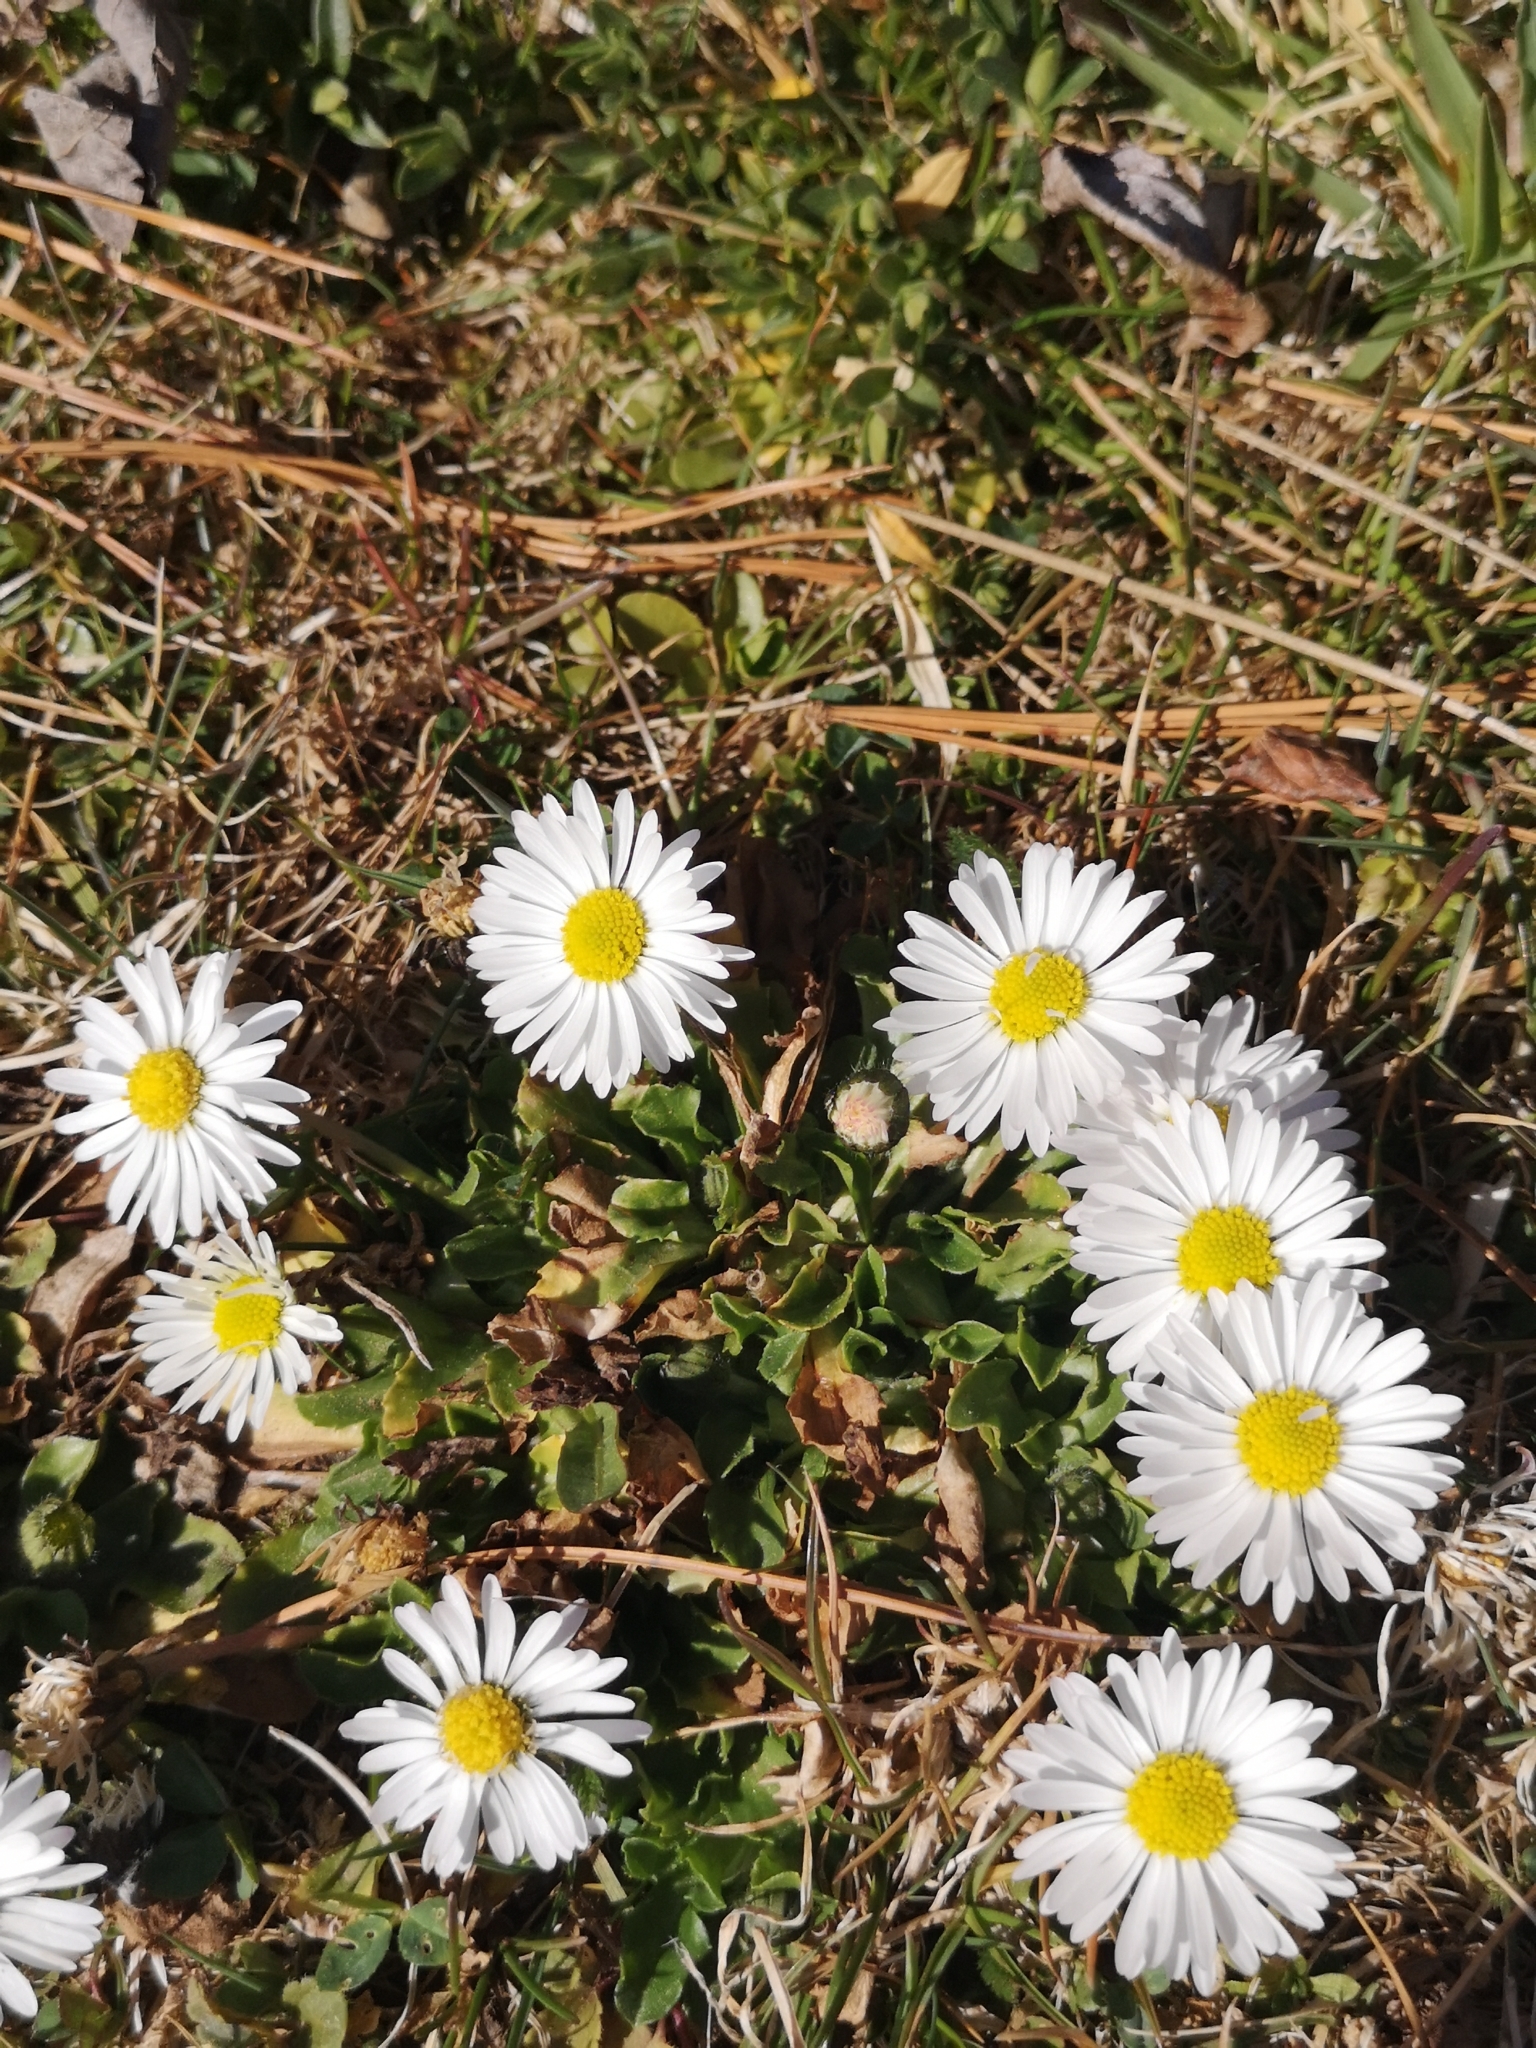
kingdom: Plantae
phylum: Tracheophyta
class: Magnoliopsida
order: Asterales
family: Asteraceae
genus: Bellis
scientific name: Bellis perennis
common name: Lawndaisy
